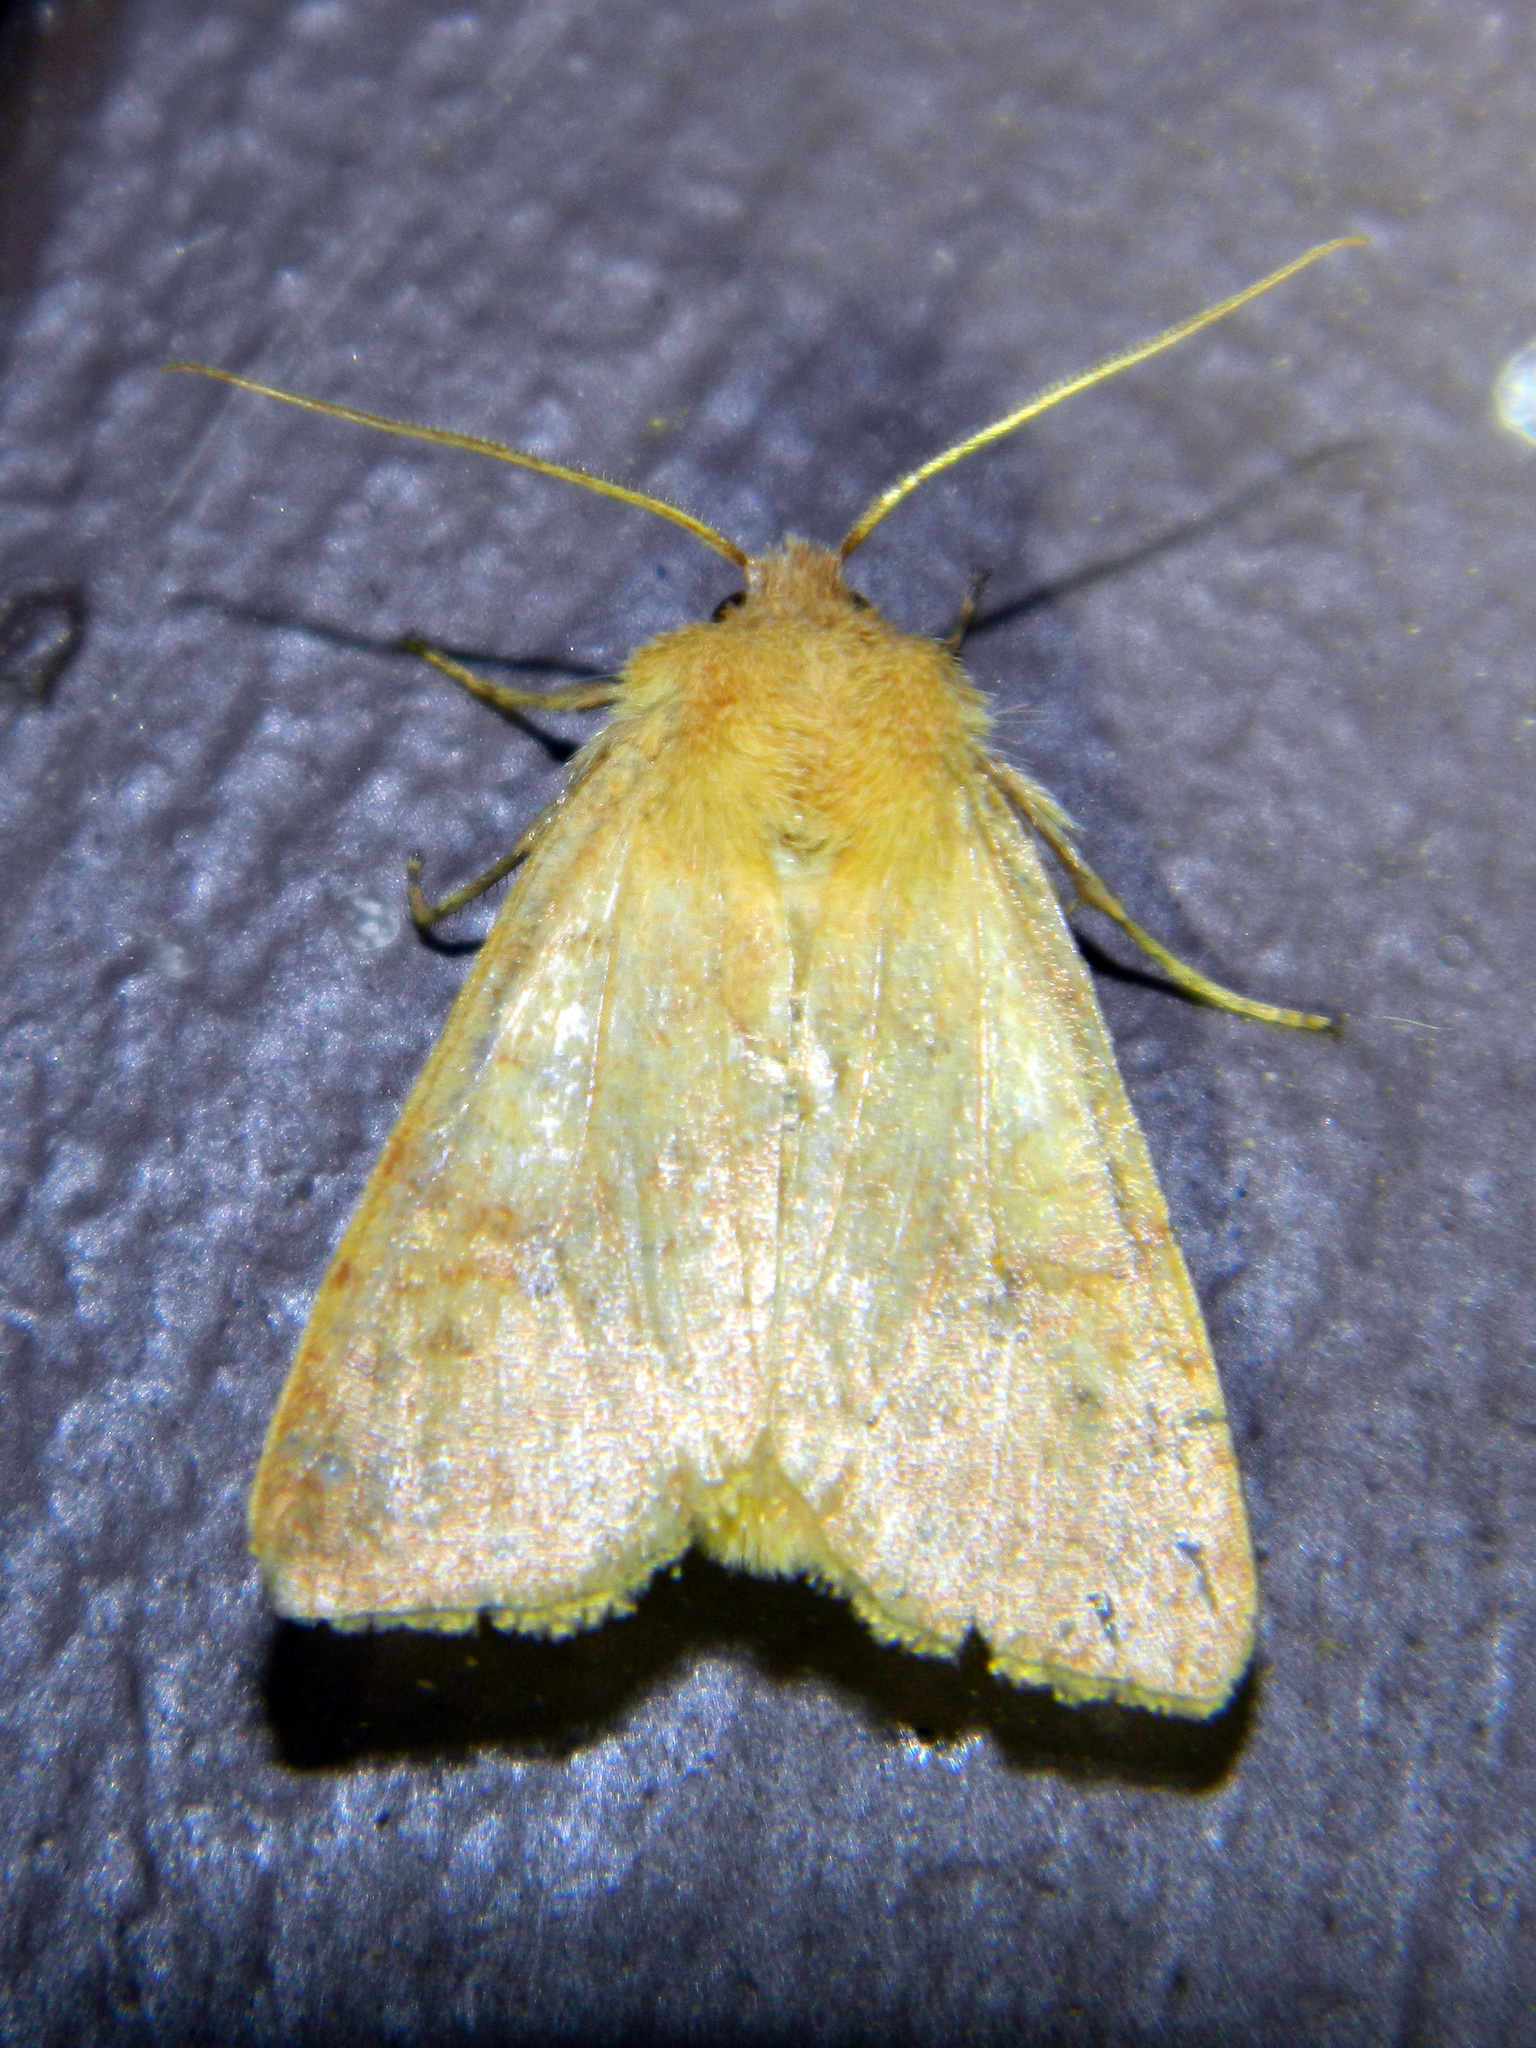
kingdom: Animalia
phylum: Arthropoda
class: Insecta
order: Lepidoptera
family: Noctuidae
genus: Agrochola
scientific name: Agrochola bicolorago
